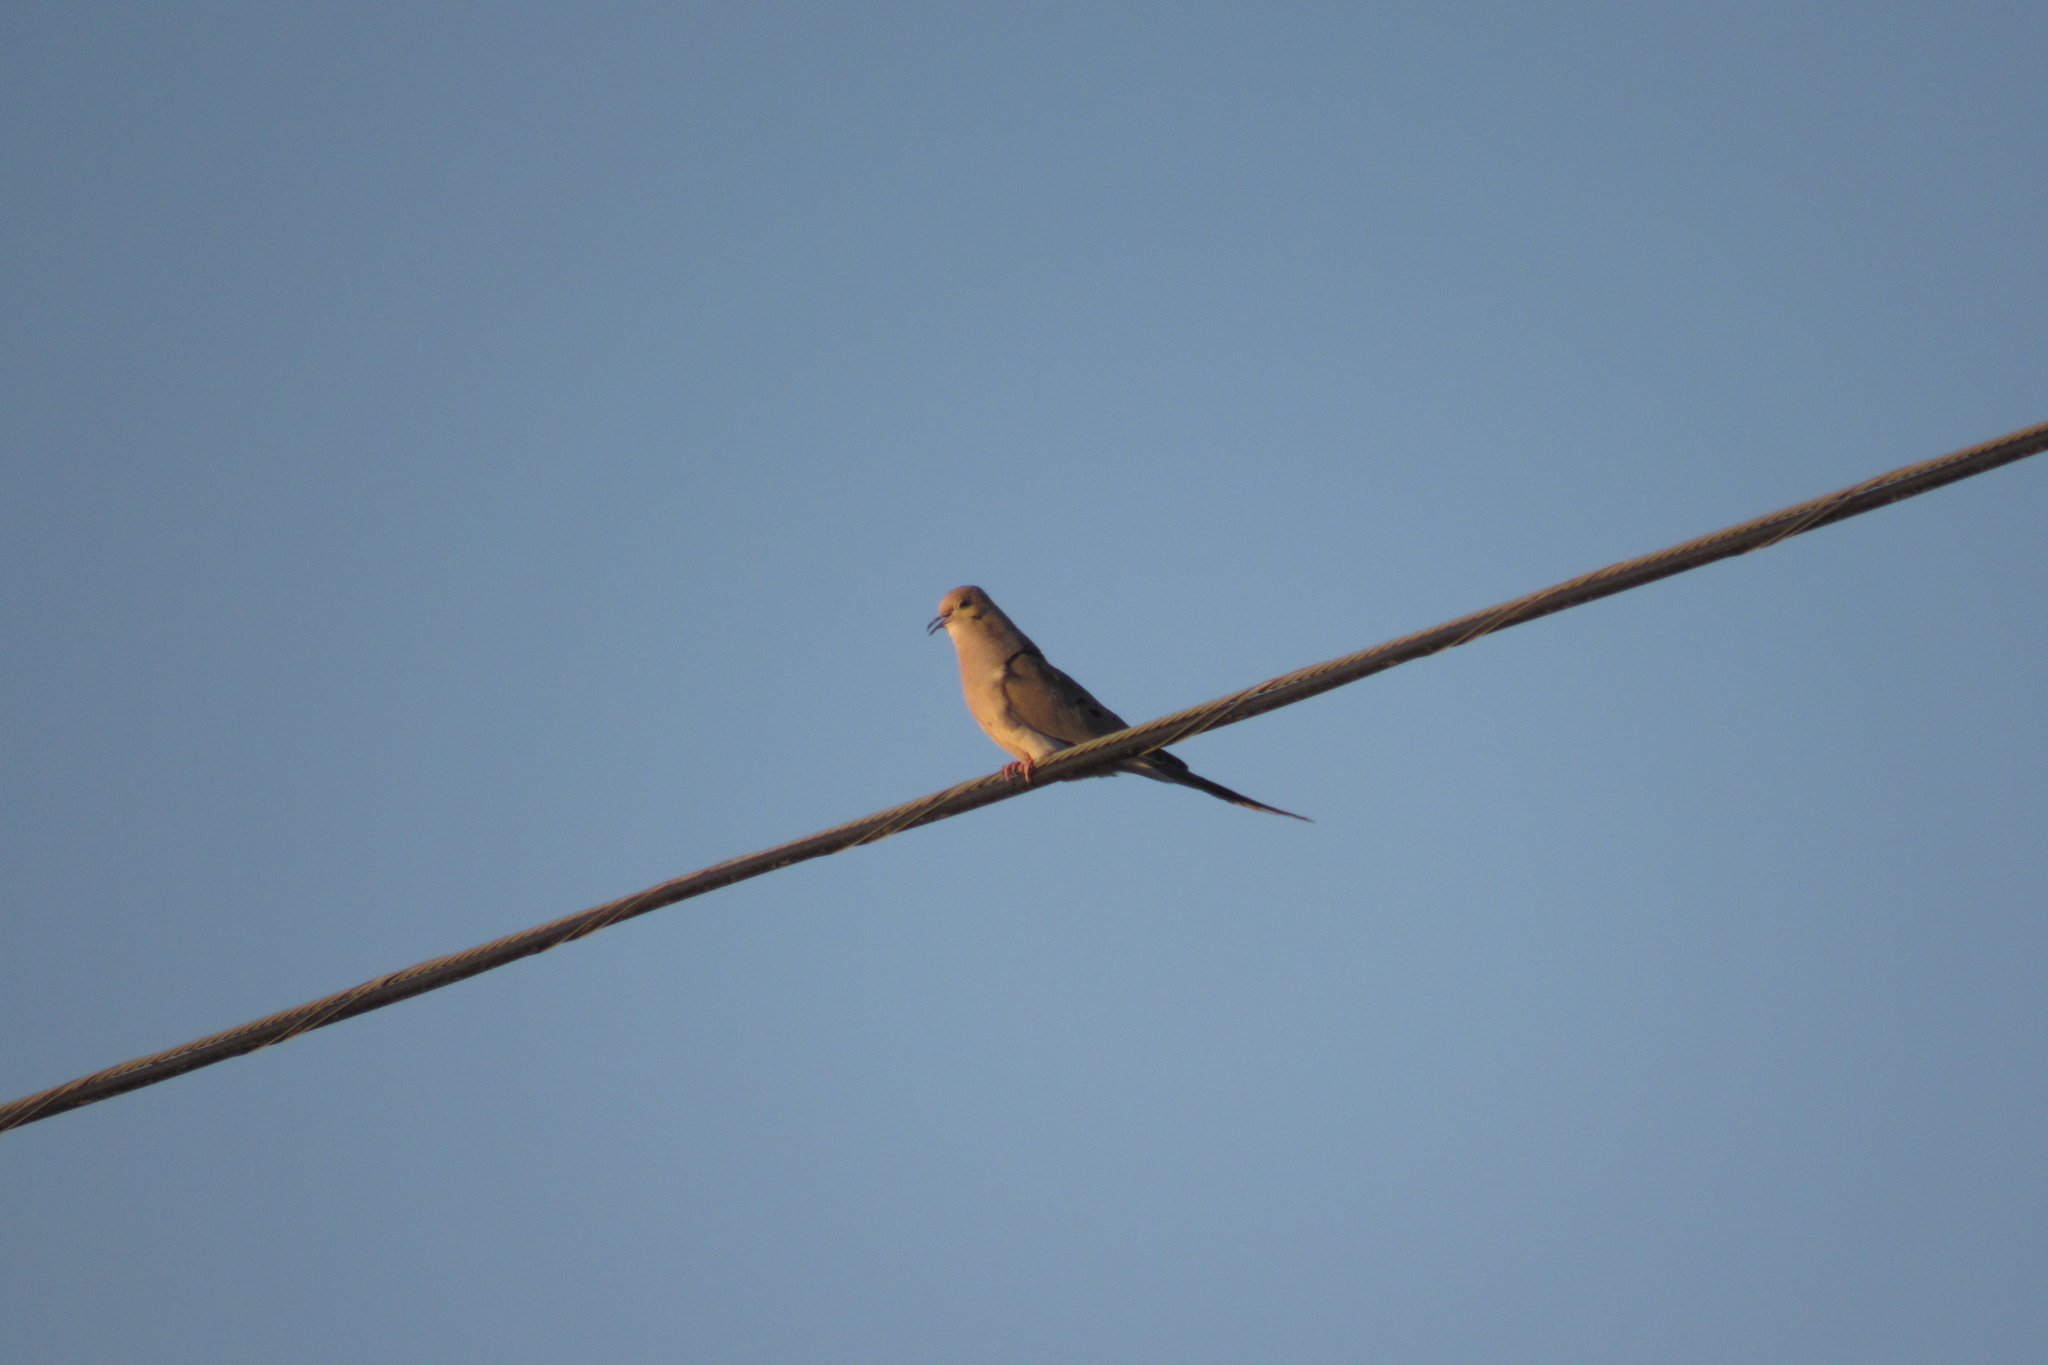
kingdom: Animalia
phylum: Chordata
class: Aves
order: Columbiformes
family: Columbidae
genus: Zenaida
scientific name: Zenaida macroura
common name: Mourning dove
